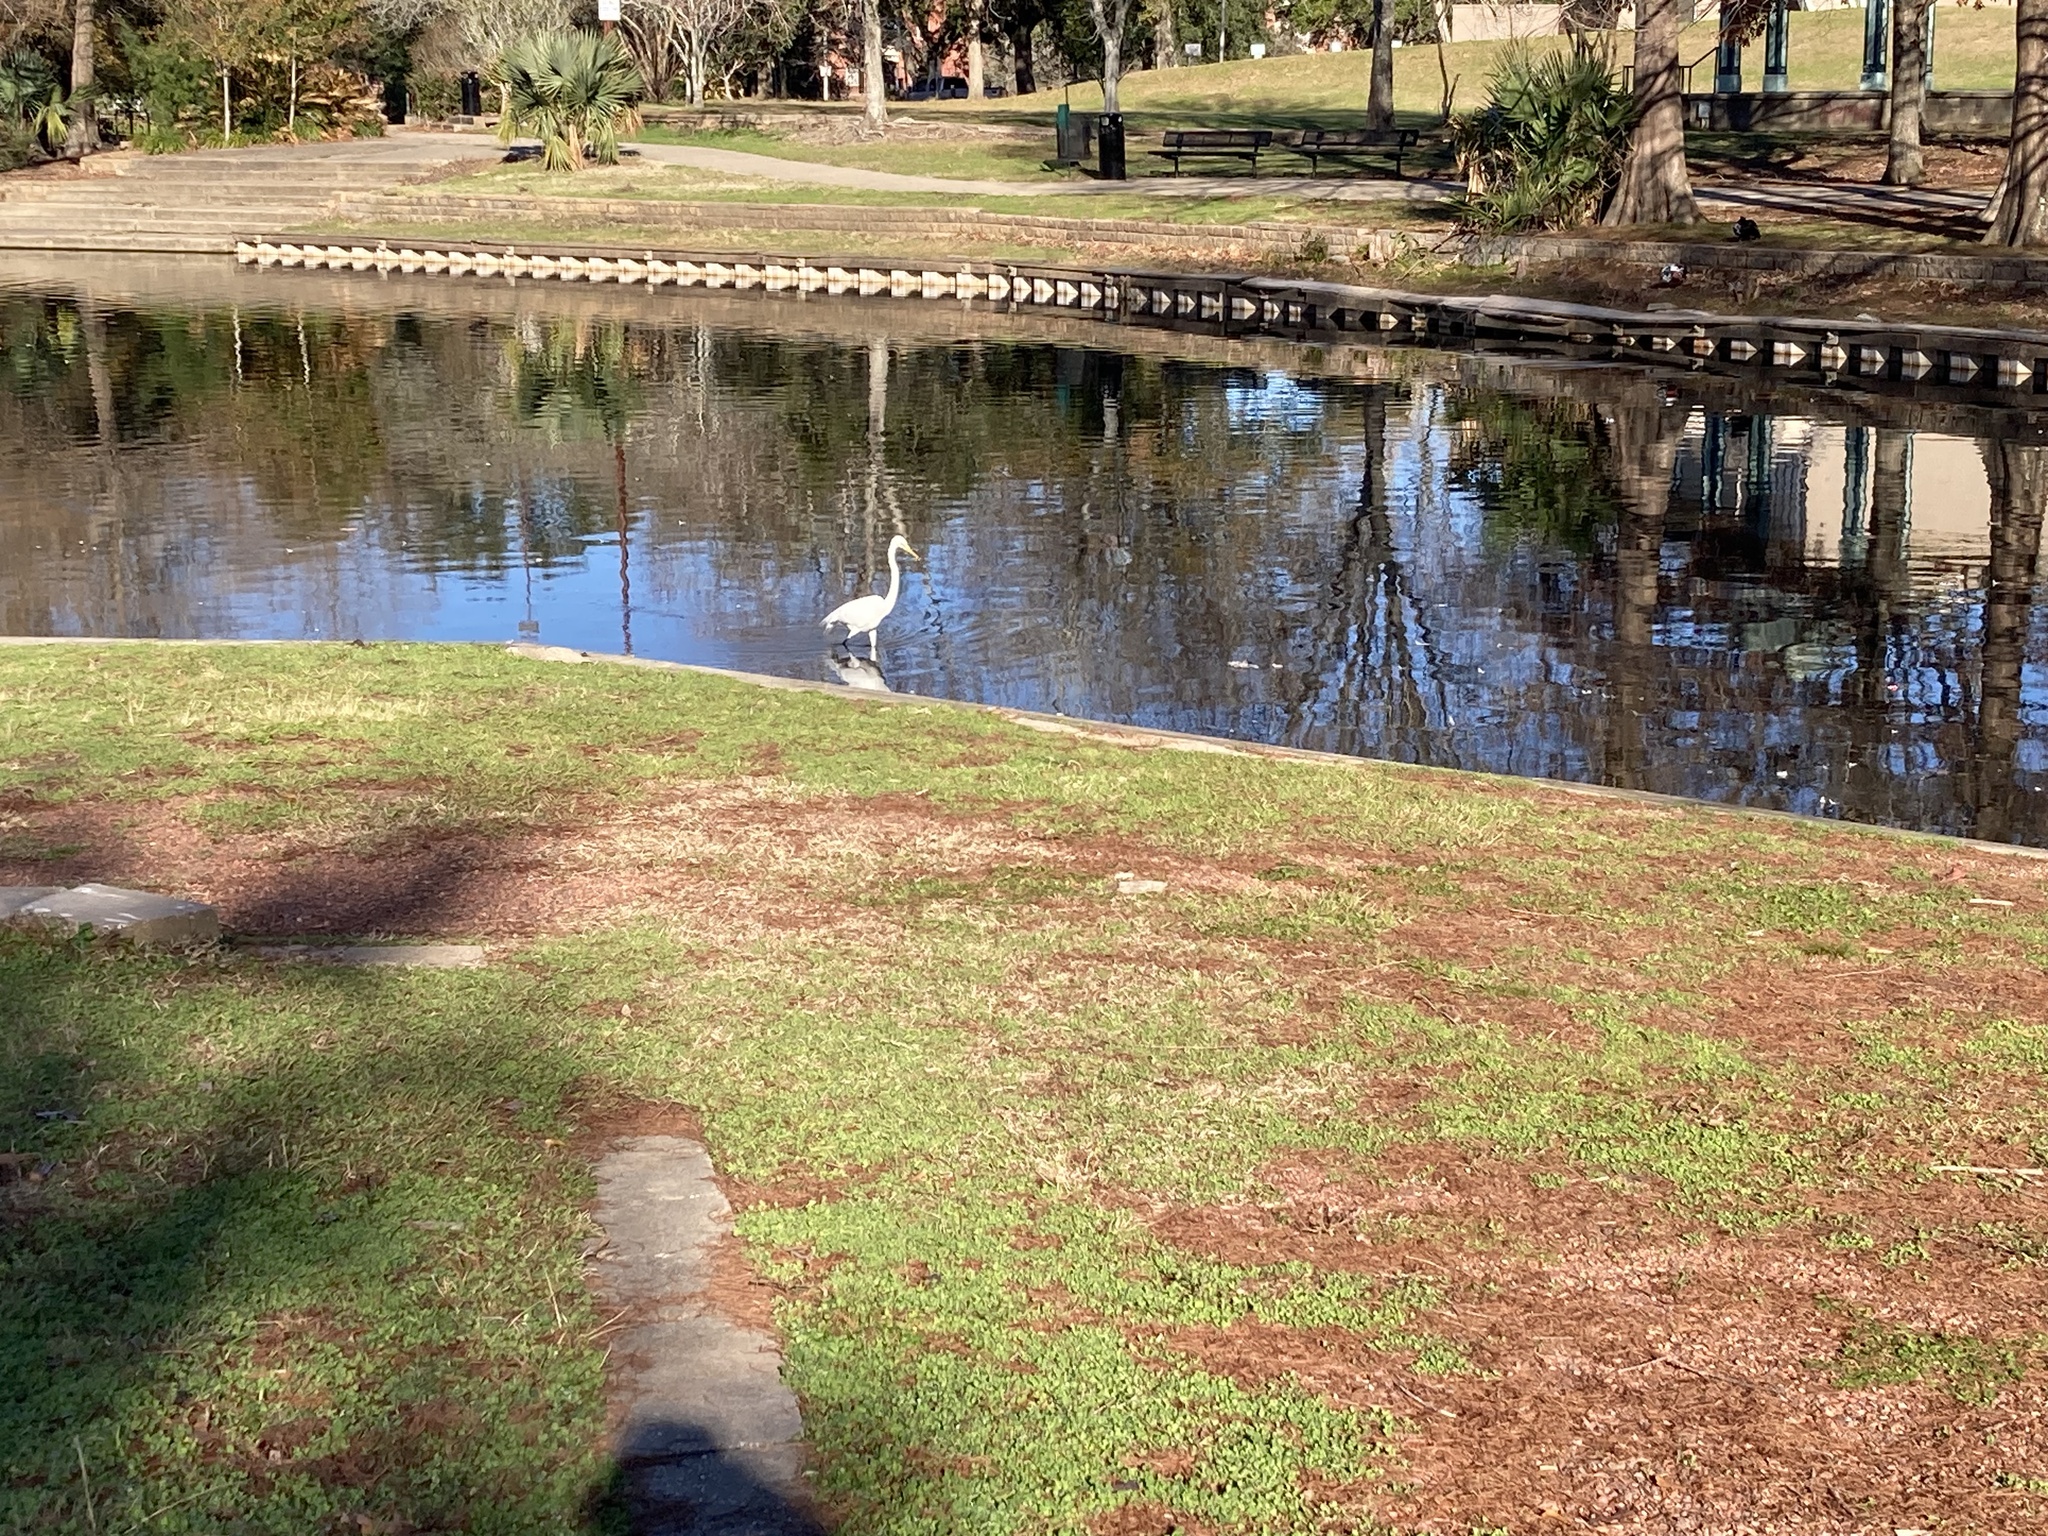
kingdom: Animalia
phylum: Chordata
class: Aves
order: Pelecaniformes
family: Ardeidae
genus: Ardea
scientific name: Ardea alba
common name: Great egret
